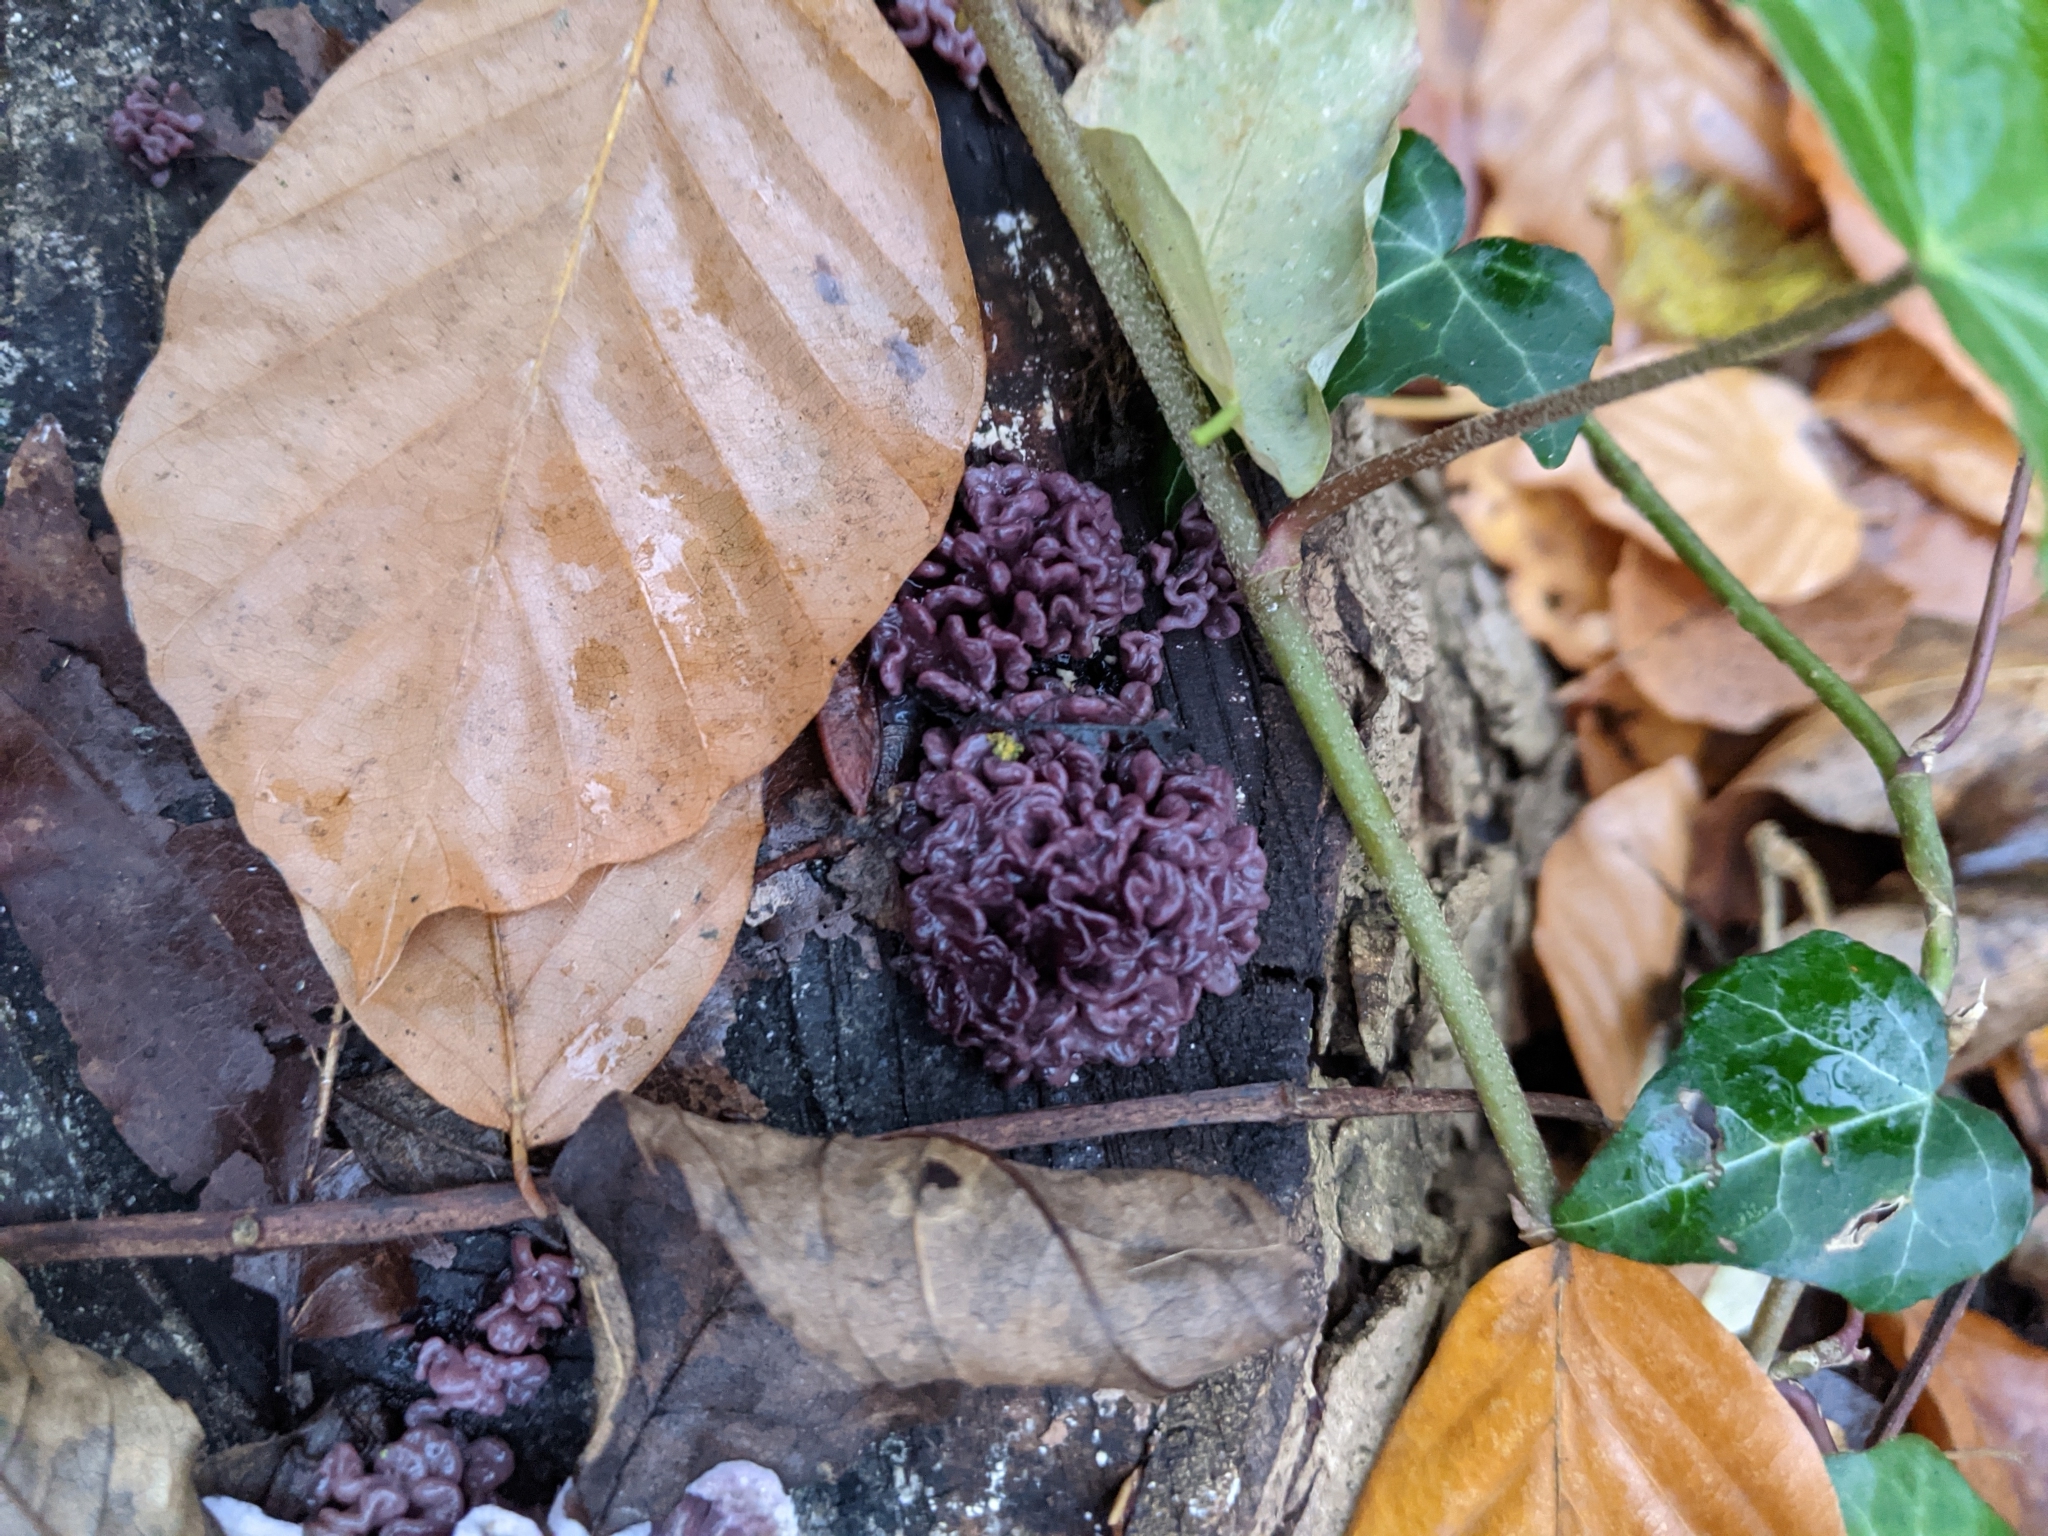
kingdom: Fungi
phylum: Ascomycota
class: Leotiomycetes
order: Helotiales
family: Gelatinodiscaceae
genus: Ascocoryne
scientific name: Ascocoryne sarcoides
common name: Purple jellydisc
